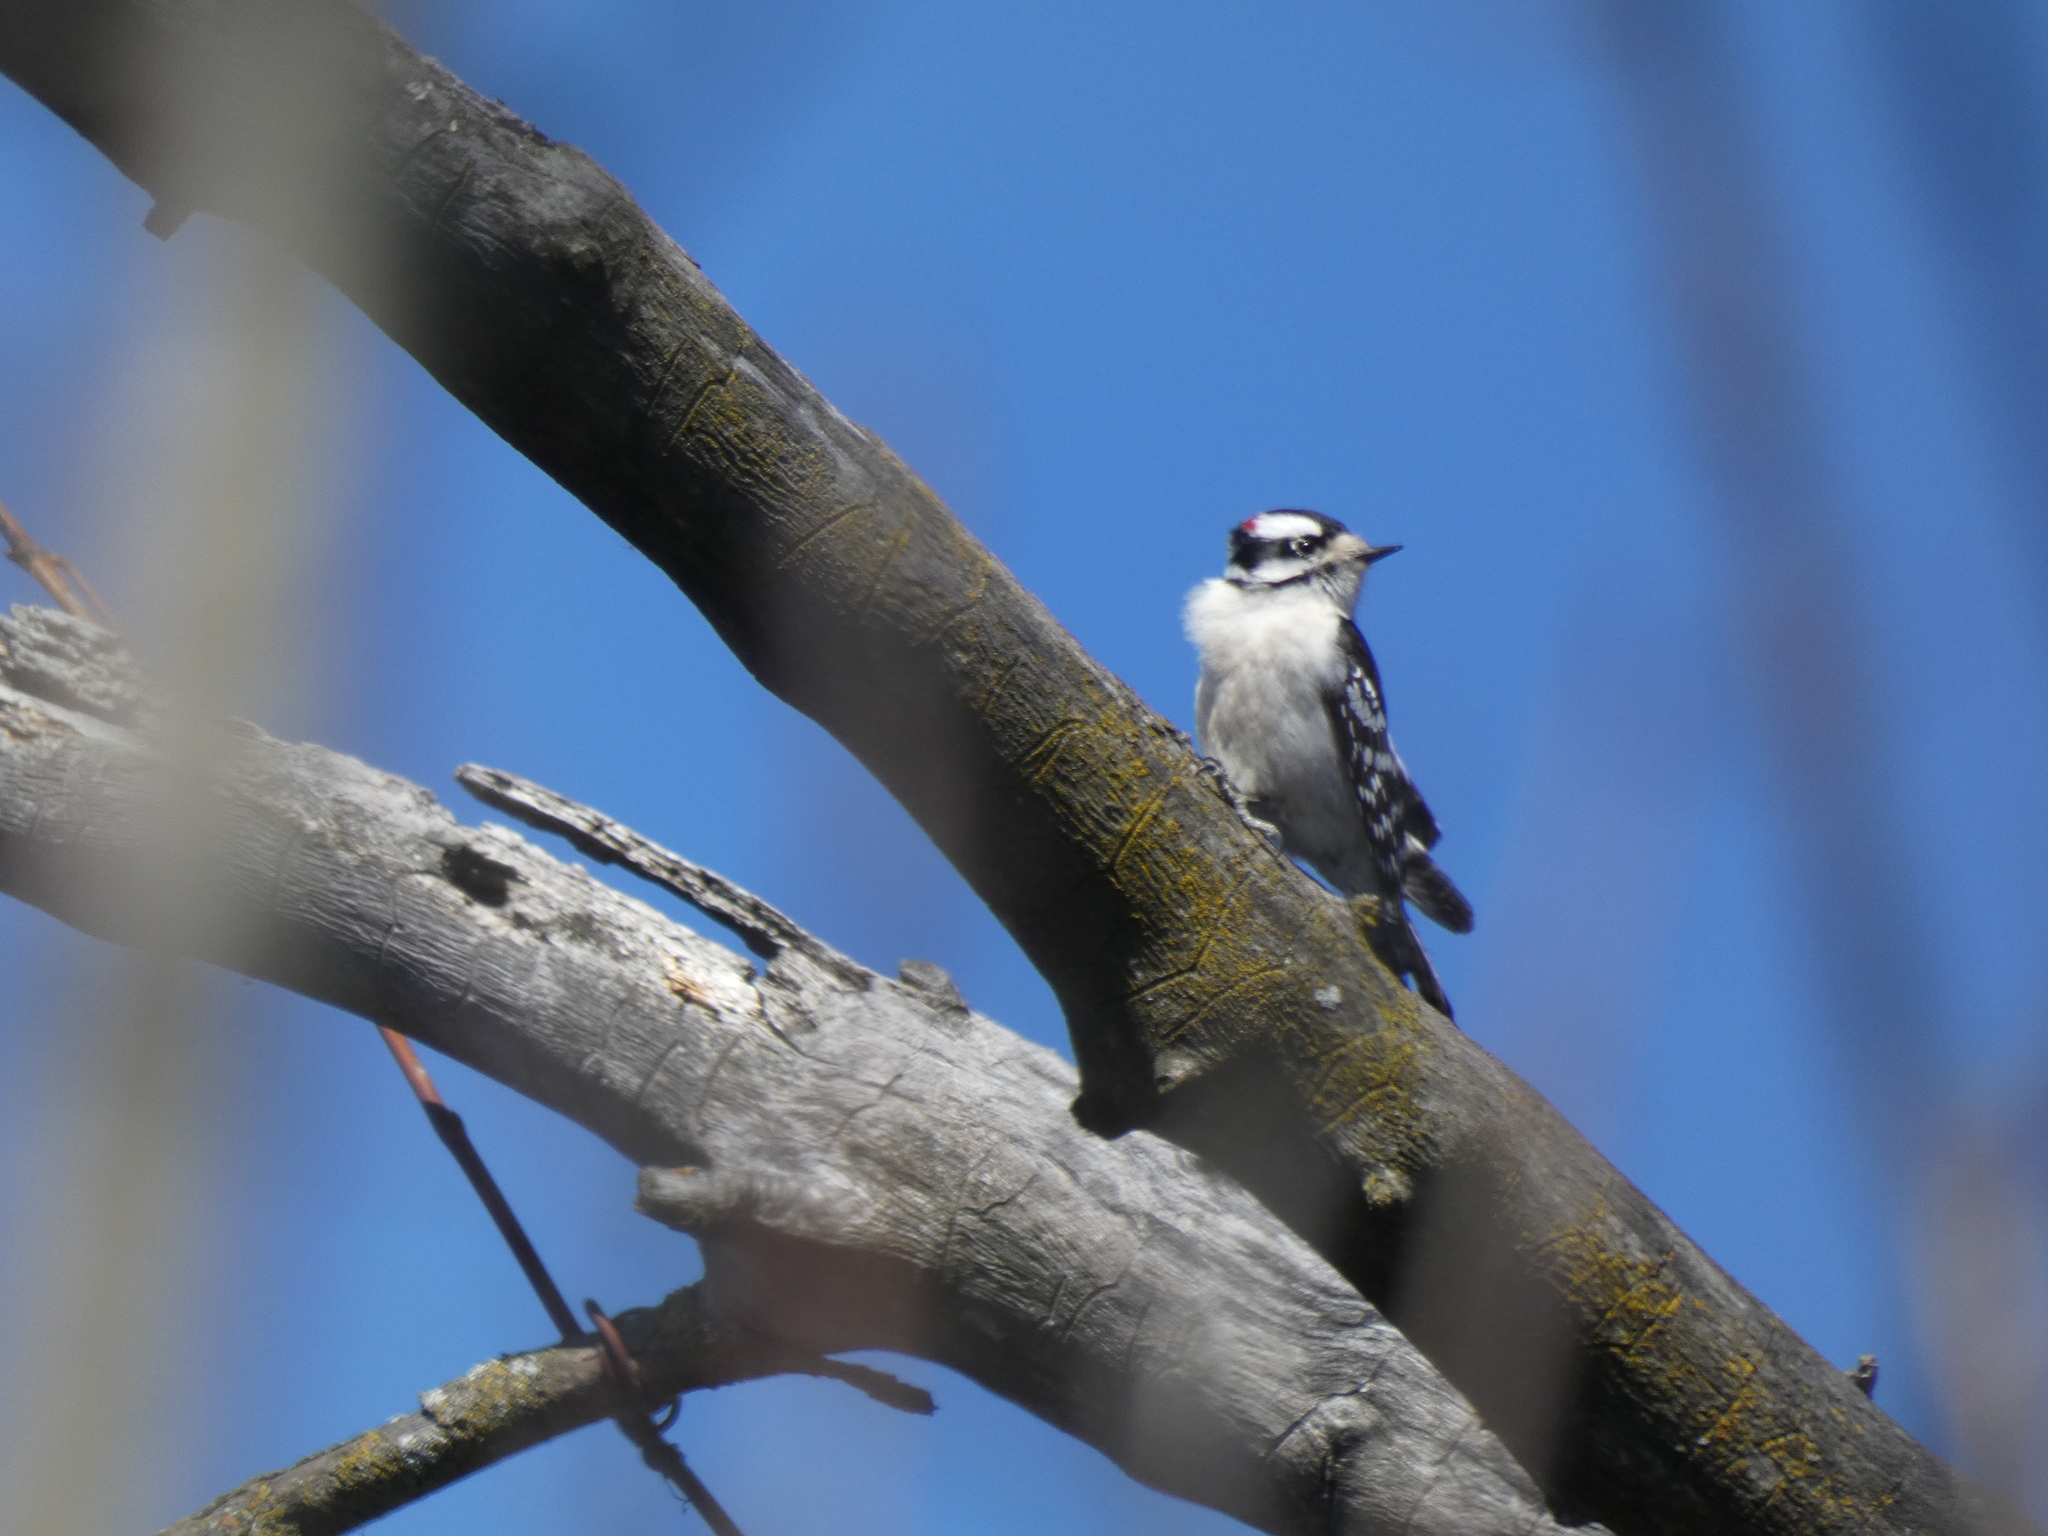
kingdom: Animalia
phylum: Chordata
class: Aves
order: Piciformes
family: Picidae
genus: Dryobates
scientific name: Dryobates pubescens
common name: Downy woodpecker
